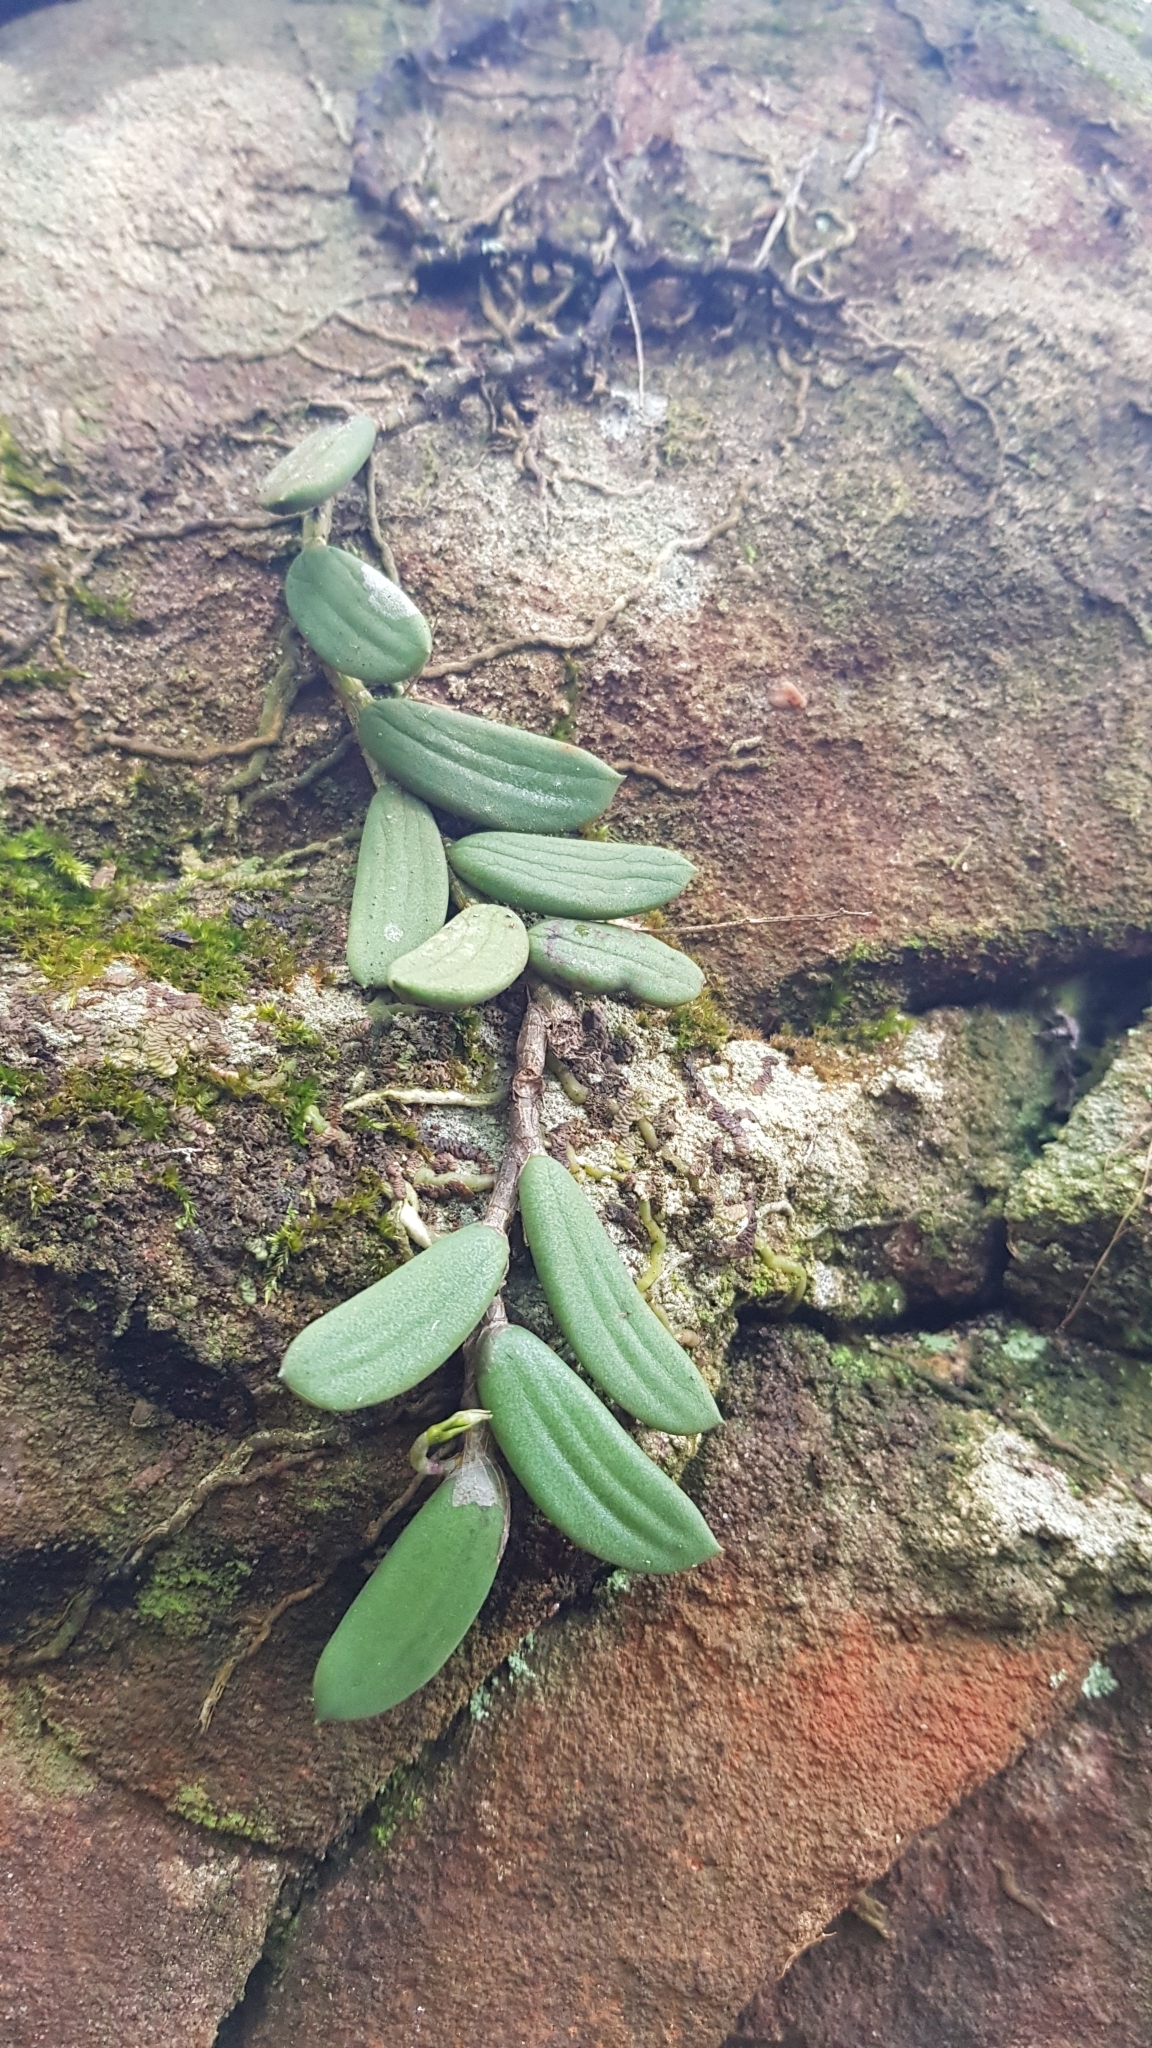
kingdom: Plantae
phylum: Tracheophyta
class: Liliopsida
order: Asparagales
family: Orchidaceae
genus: Dendrobium
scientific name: Dendrobium linguiforme
